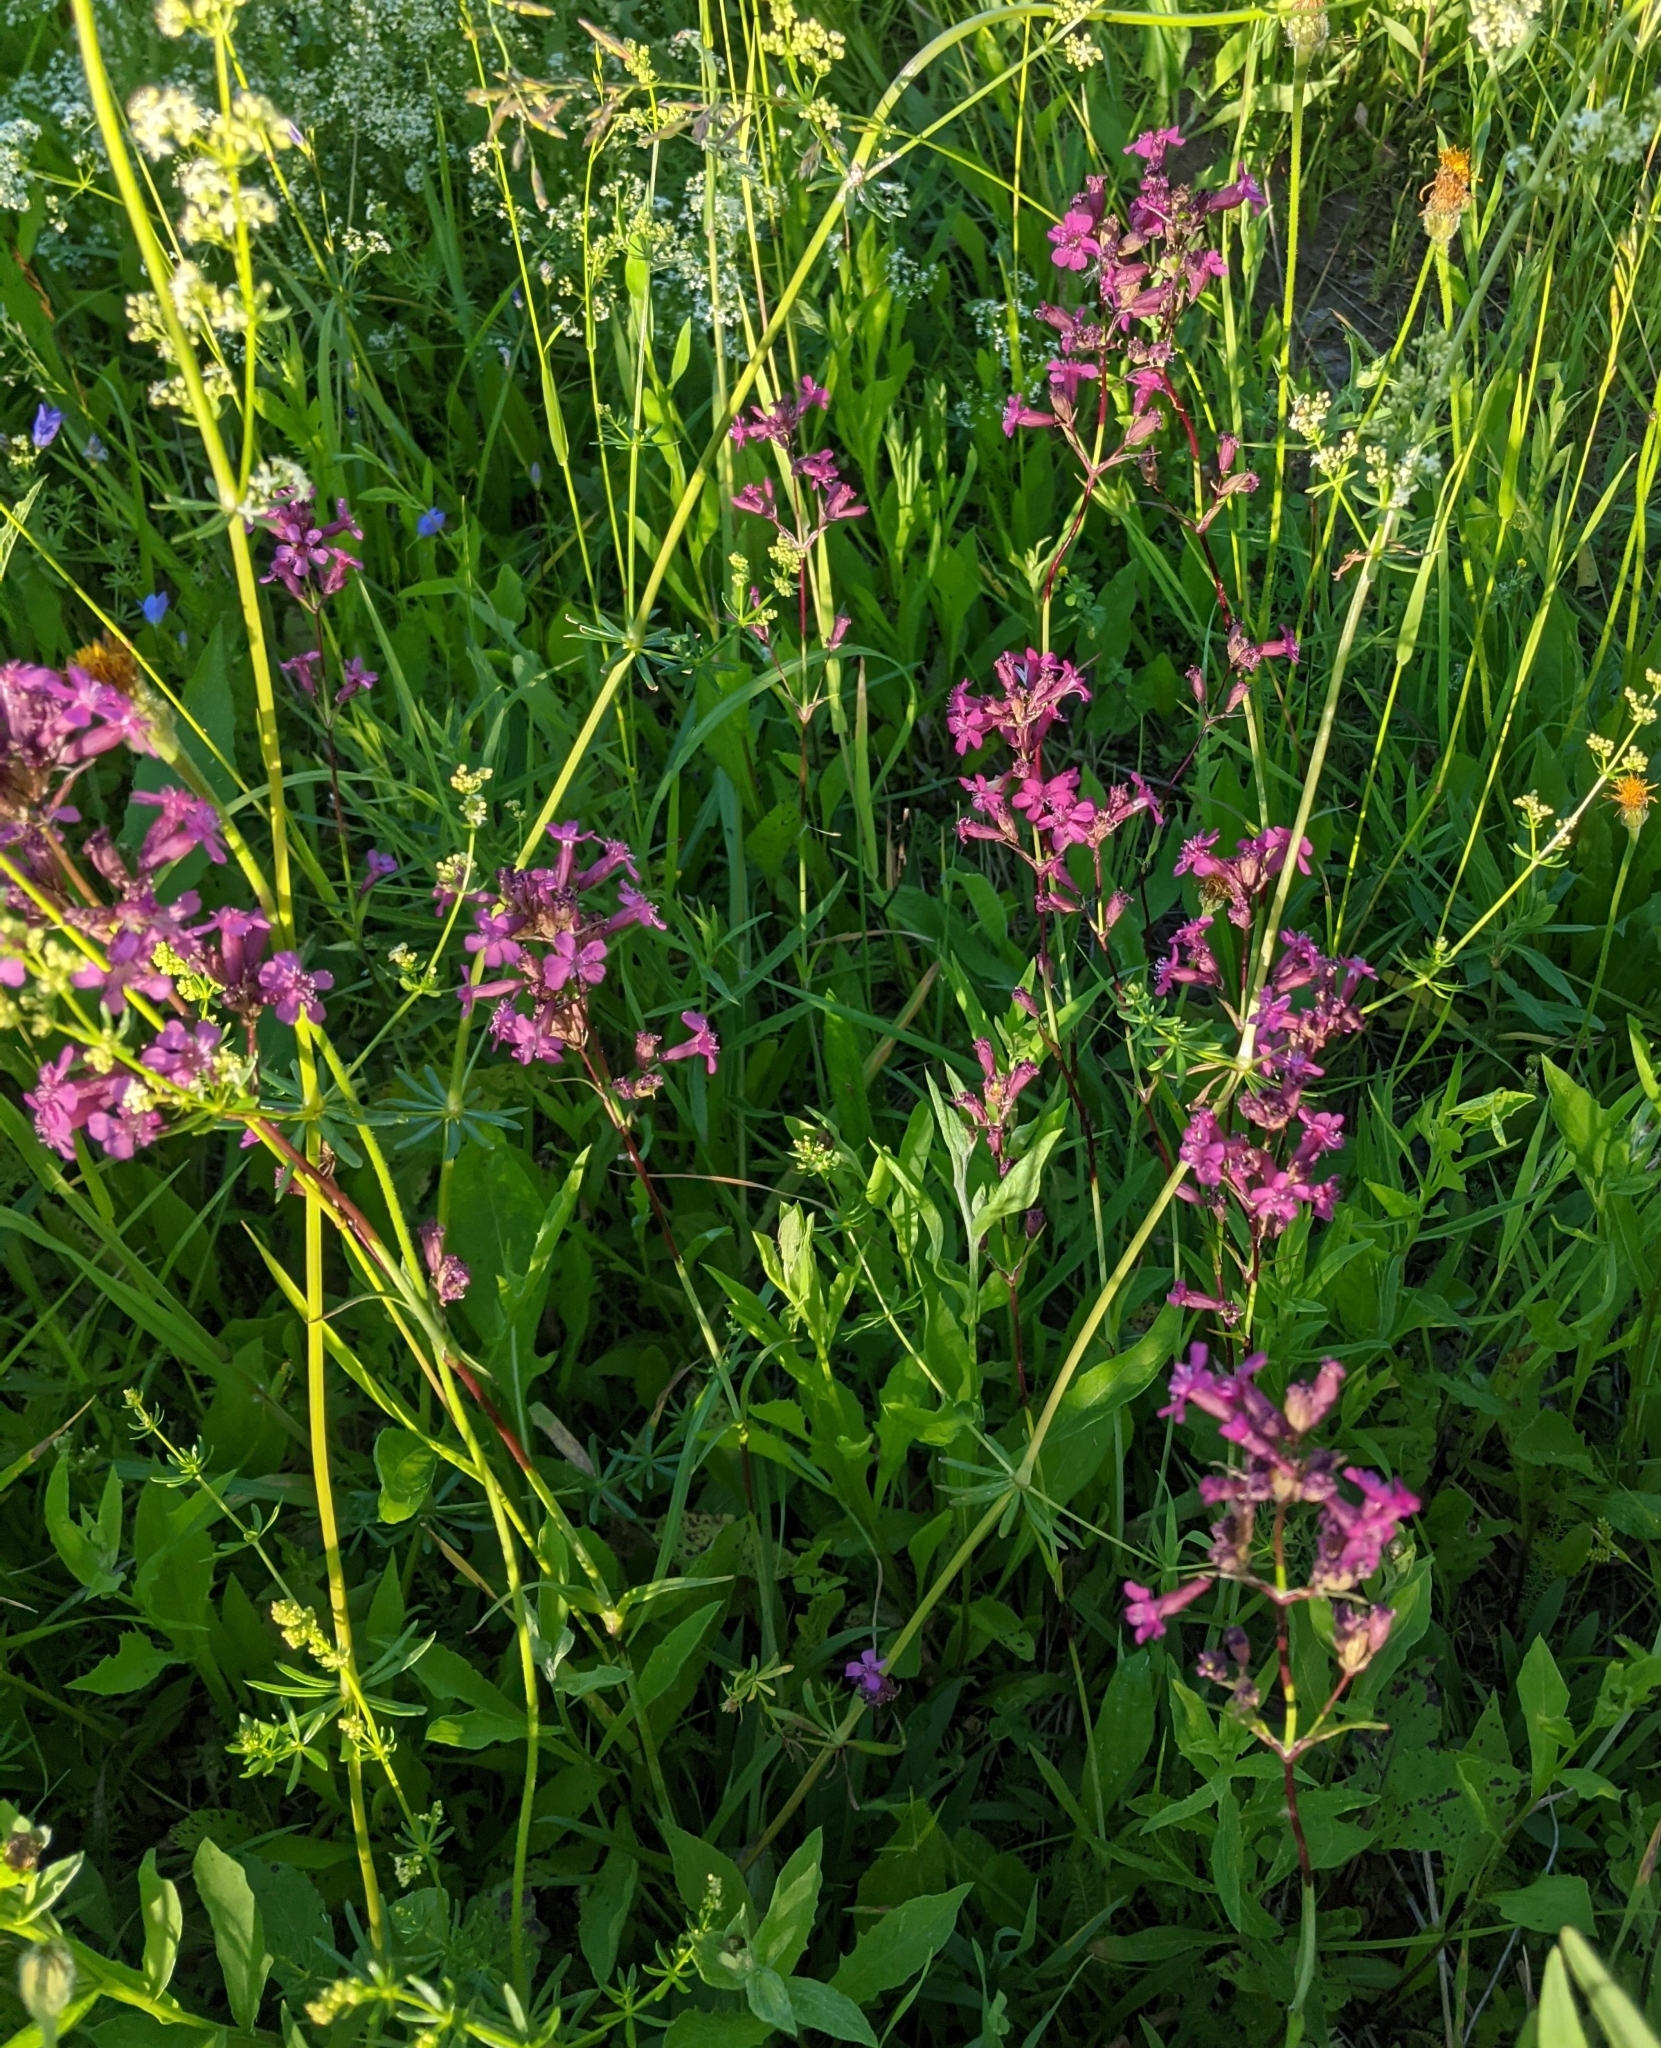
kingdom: Plantae
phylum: Tracheophyta
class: Magnoliopsida
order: Caryophyllales
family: Caryophyllaceae
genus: Viscaria
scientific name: Viscaria vulgaris
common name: Clammy campion
